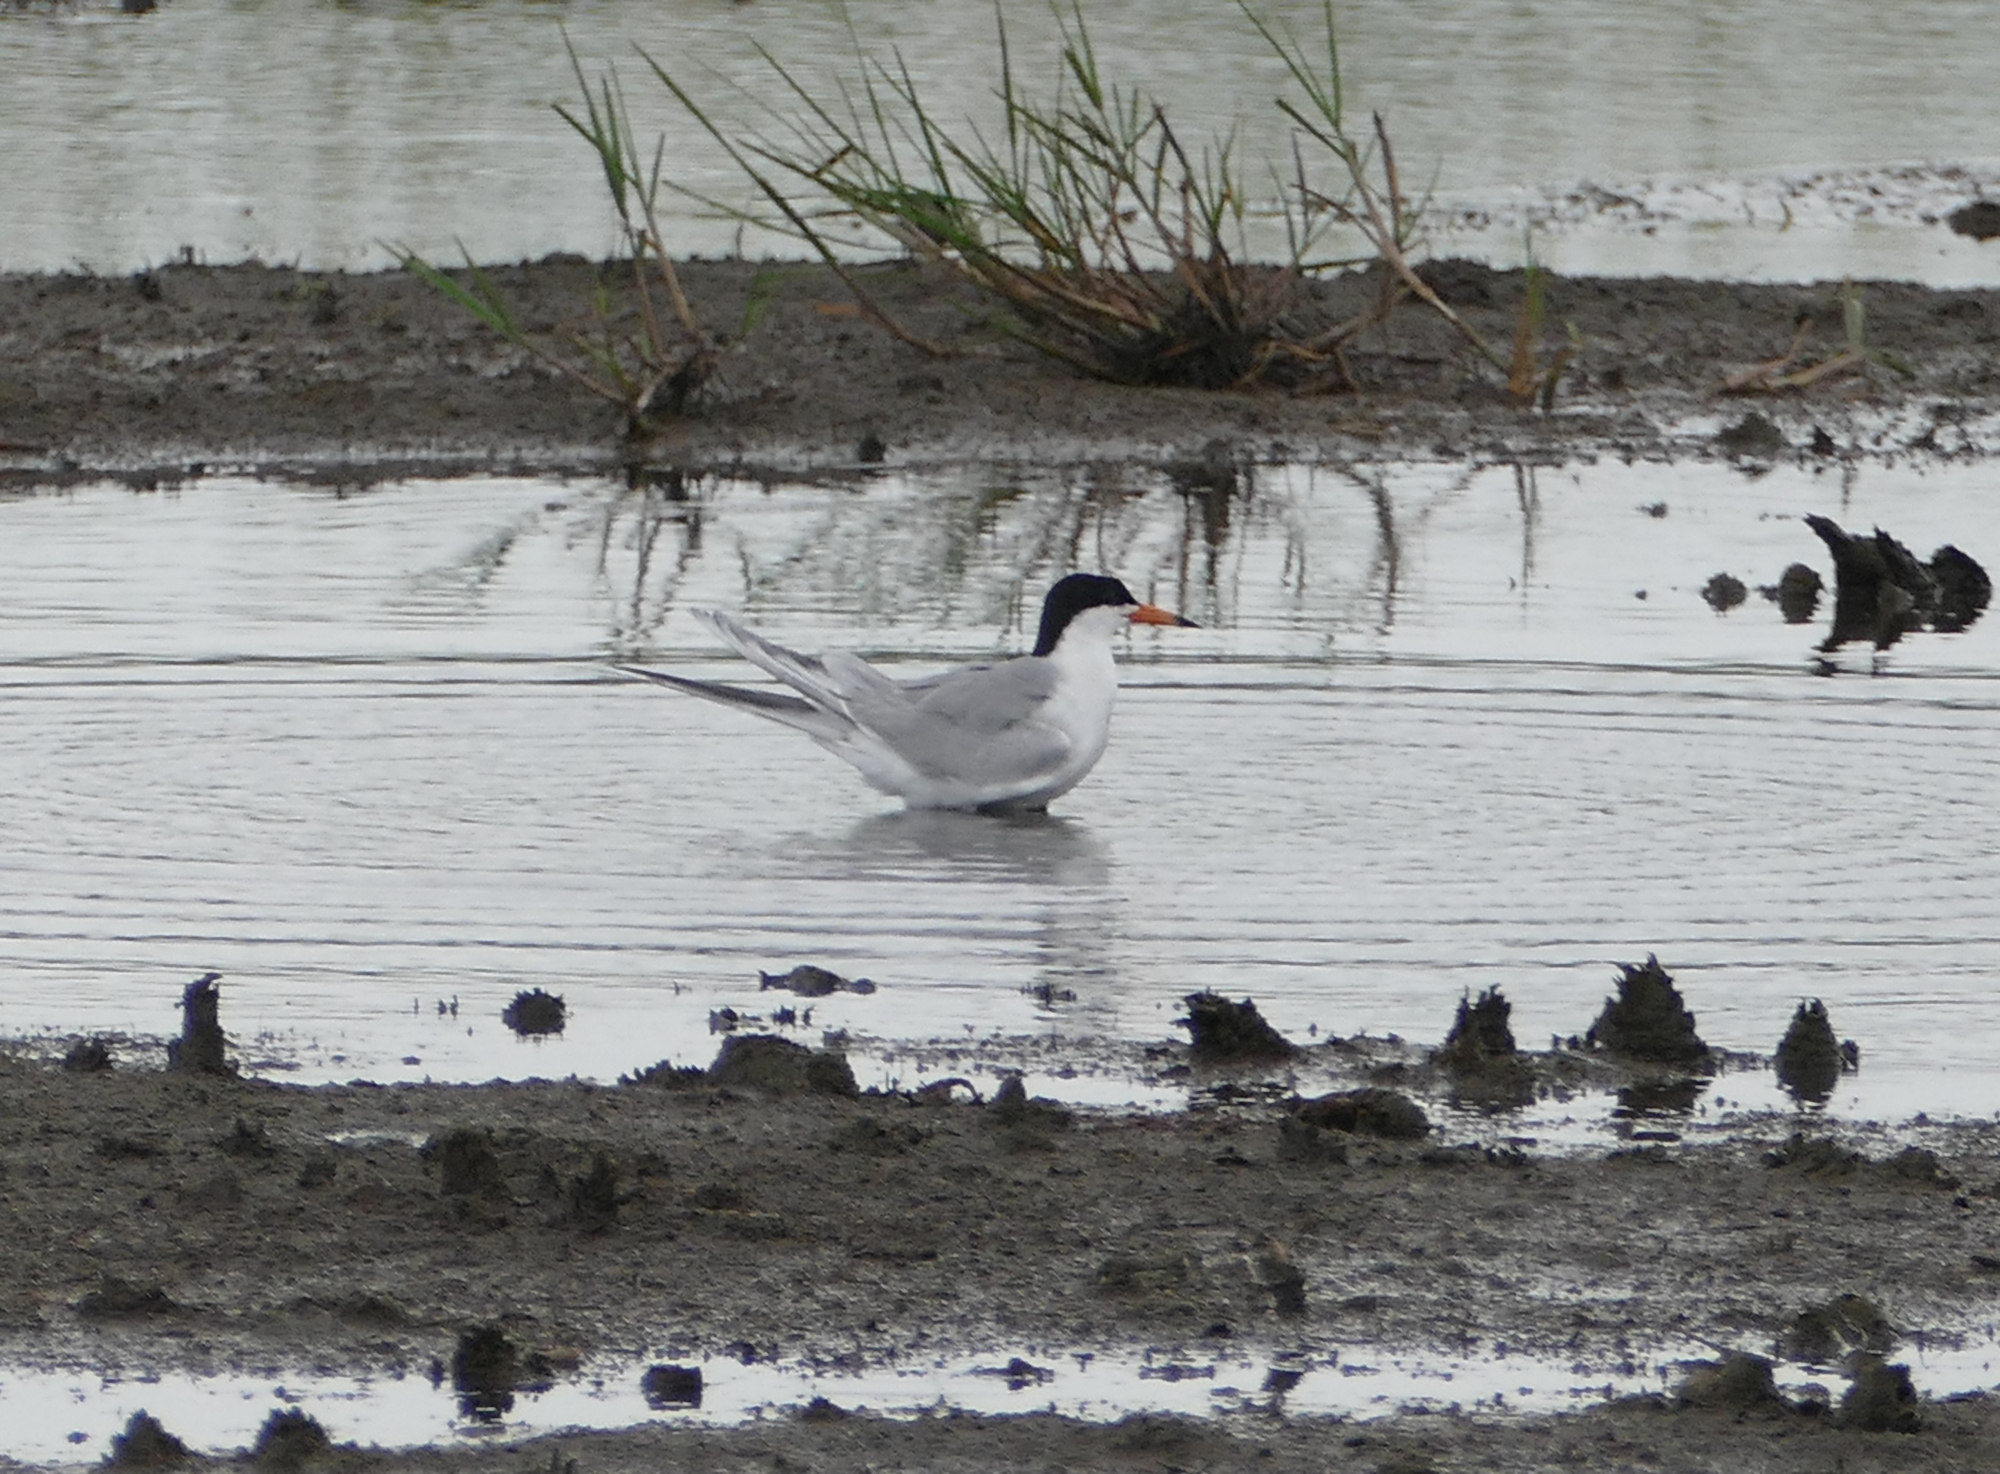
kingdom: Animalia
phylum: Chordata
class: Aves
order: Charadriiformes
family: Laridae
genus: Sterna
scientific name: Sterna forsteri
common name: Forster's tern
